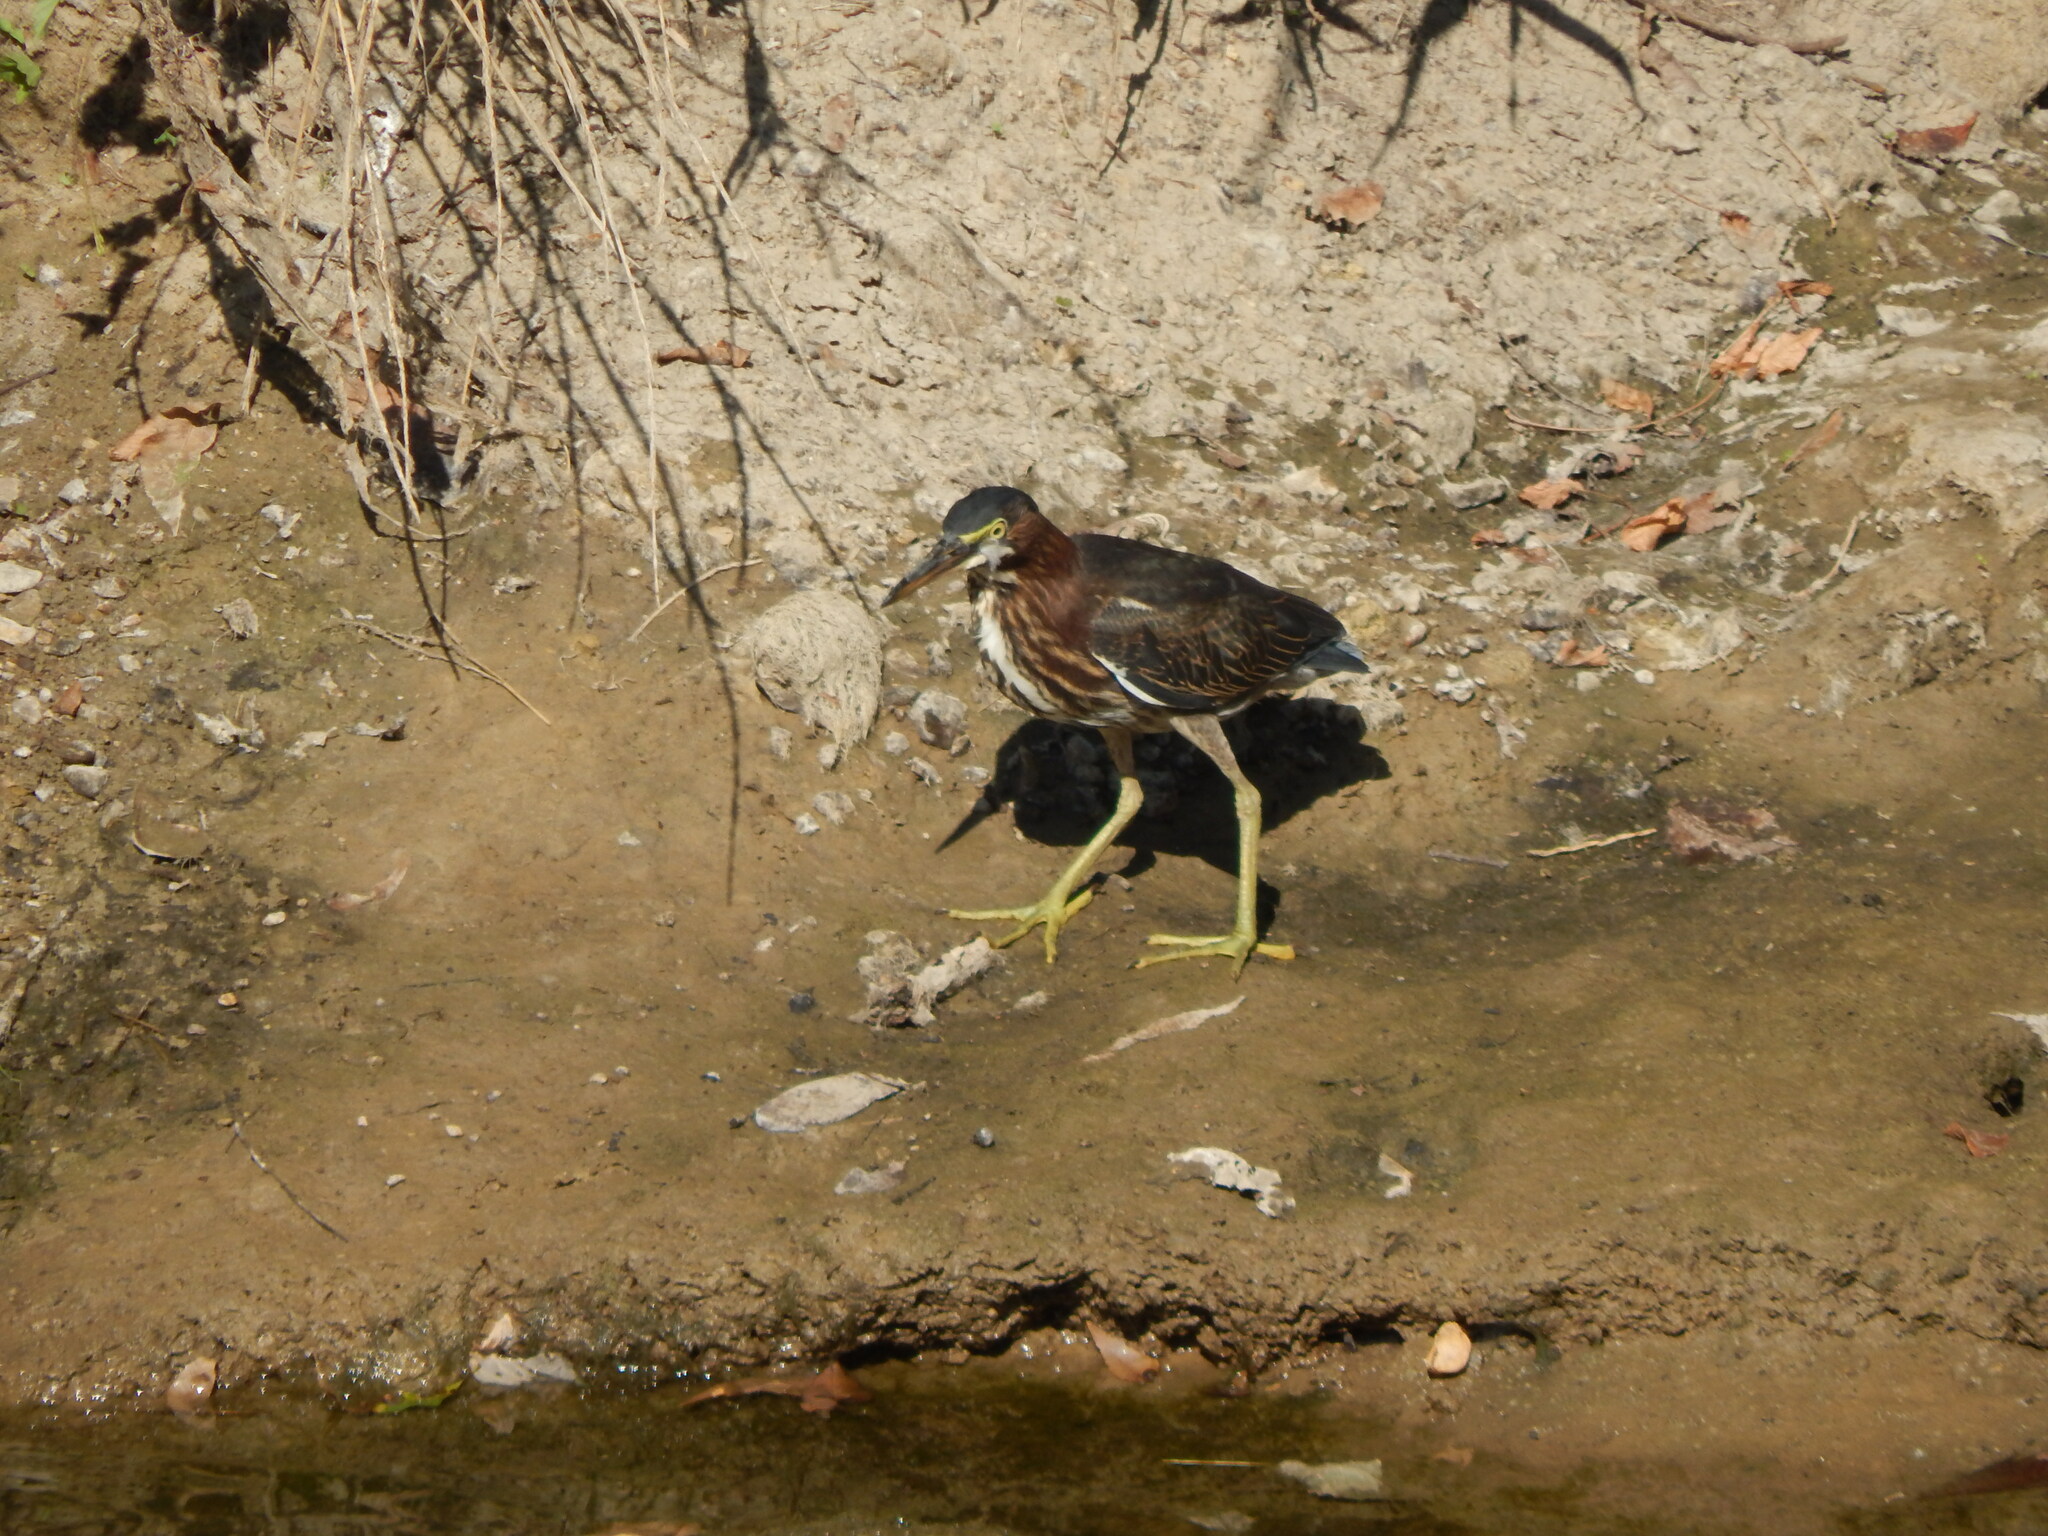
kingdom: Animalia
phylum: Chordata
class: Aves
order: Pelecaniformes
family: Ardeidae
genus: Butorides
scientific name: Butorides virescens
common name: Green heron
